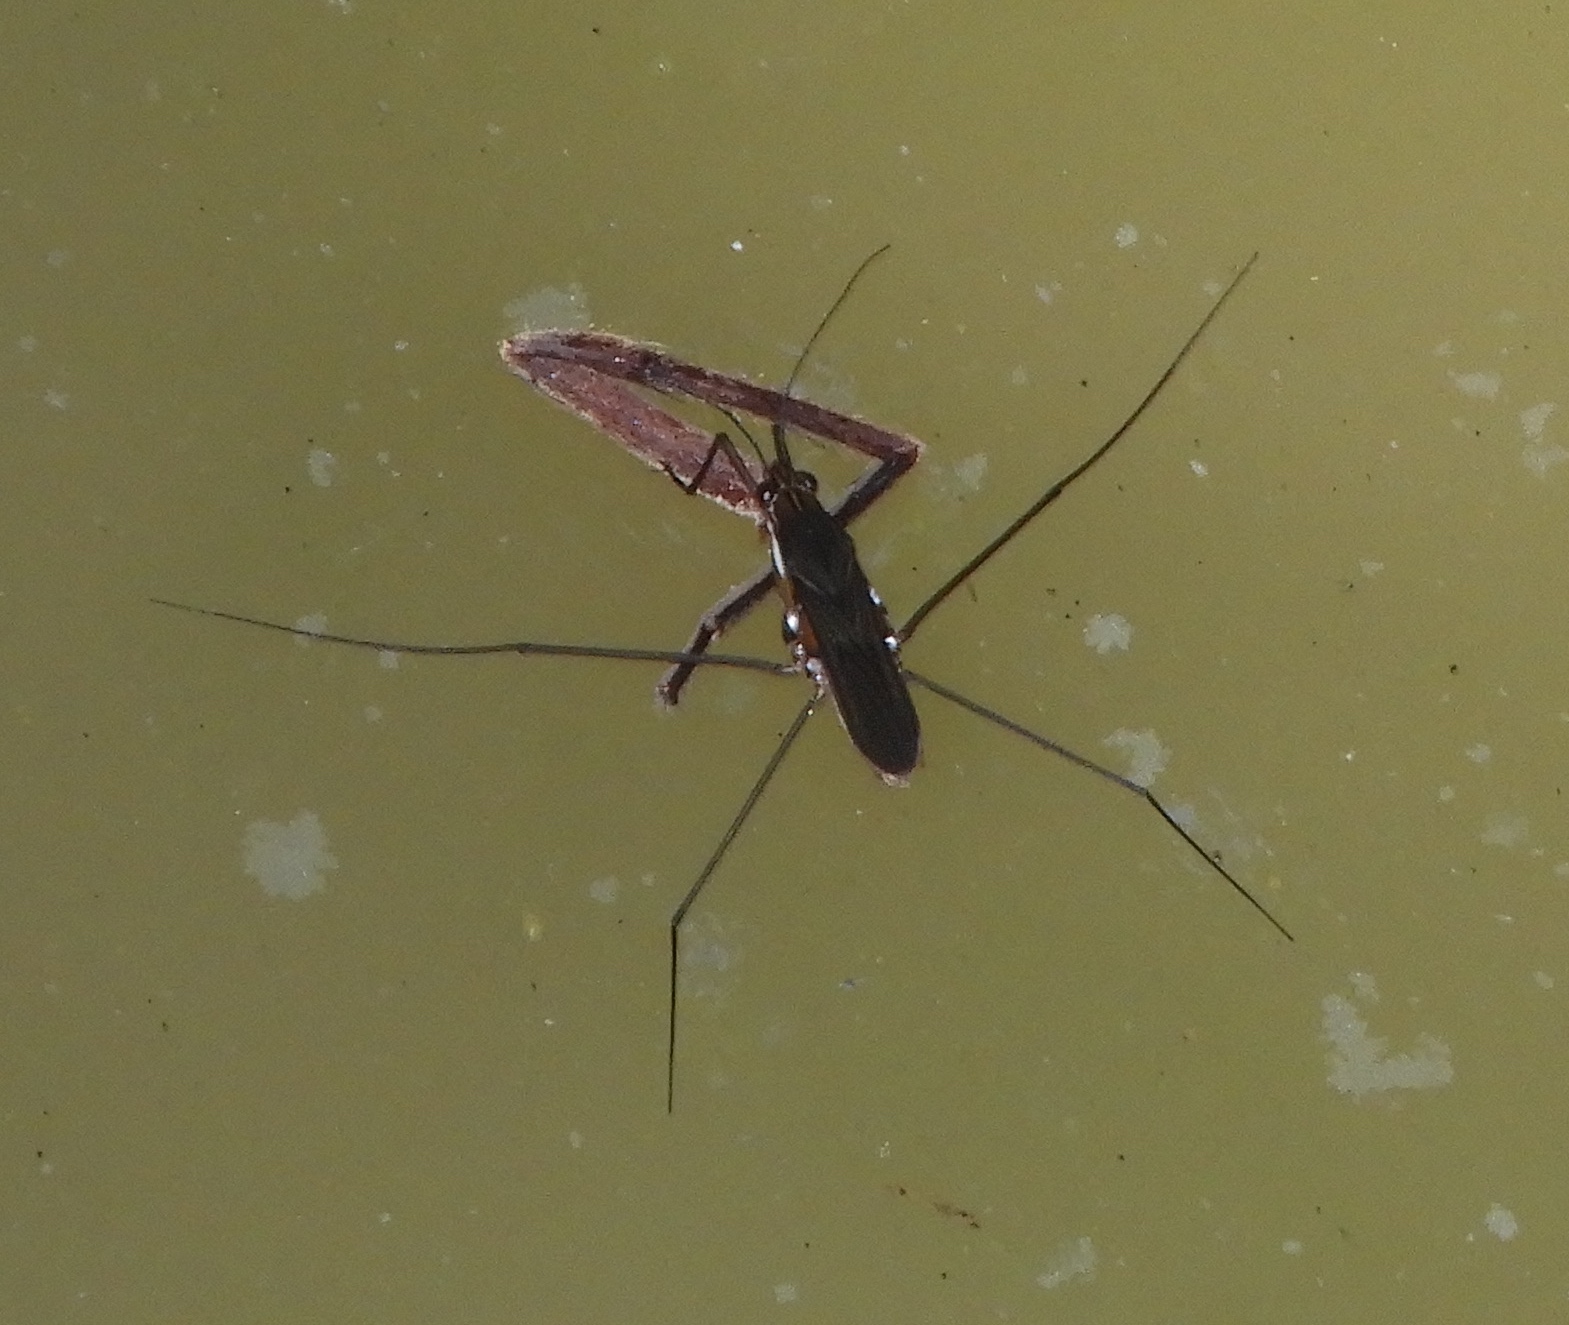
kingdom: Animalia
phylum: Arthropoda
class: Insecta
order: Hemiptera
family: Gerridae
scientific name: Gerridae
